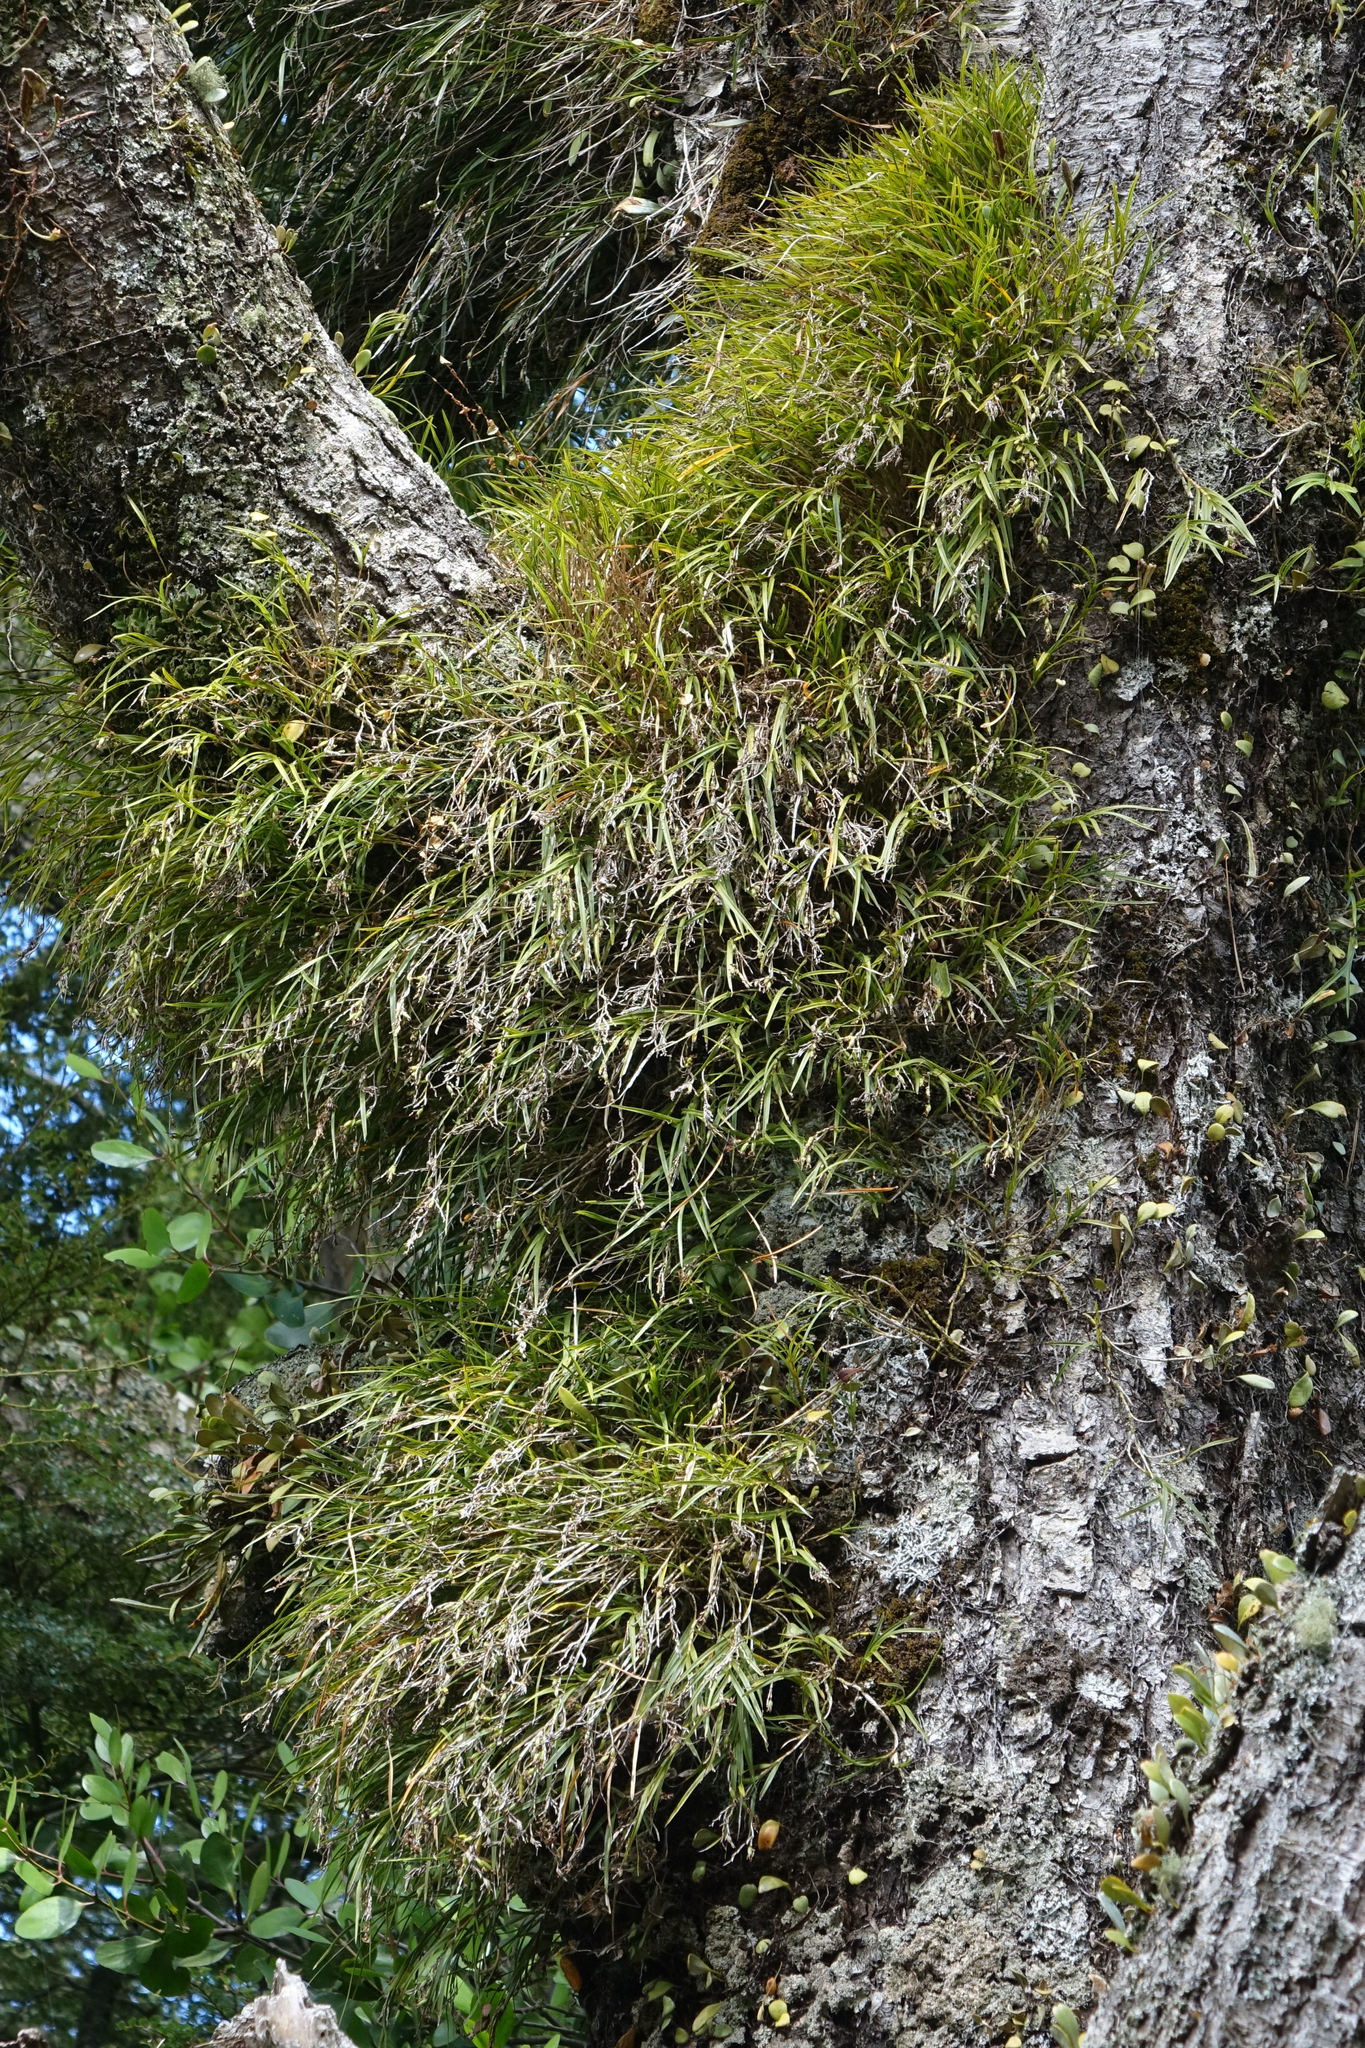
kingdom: Plantae
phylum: Tracheophyta
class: Liliopsida
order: Asparagales
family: Orchidaceae
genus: Earina
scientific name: Earina mucronata
